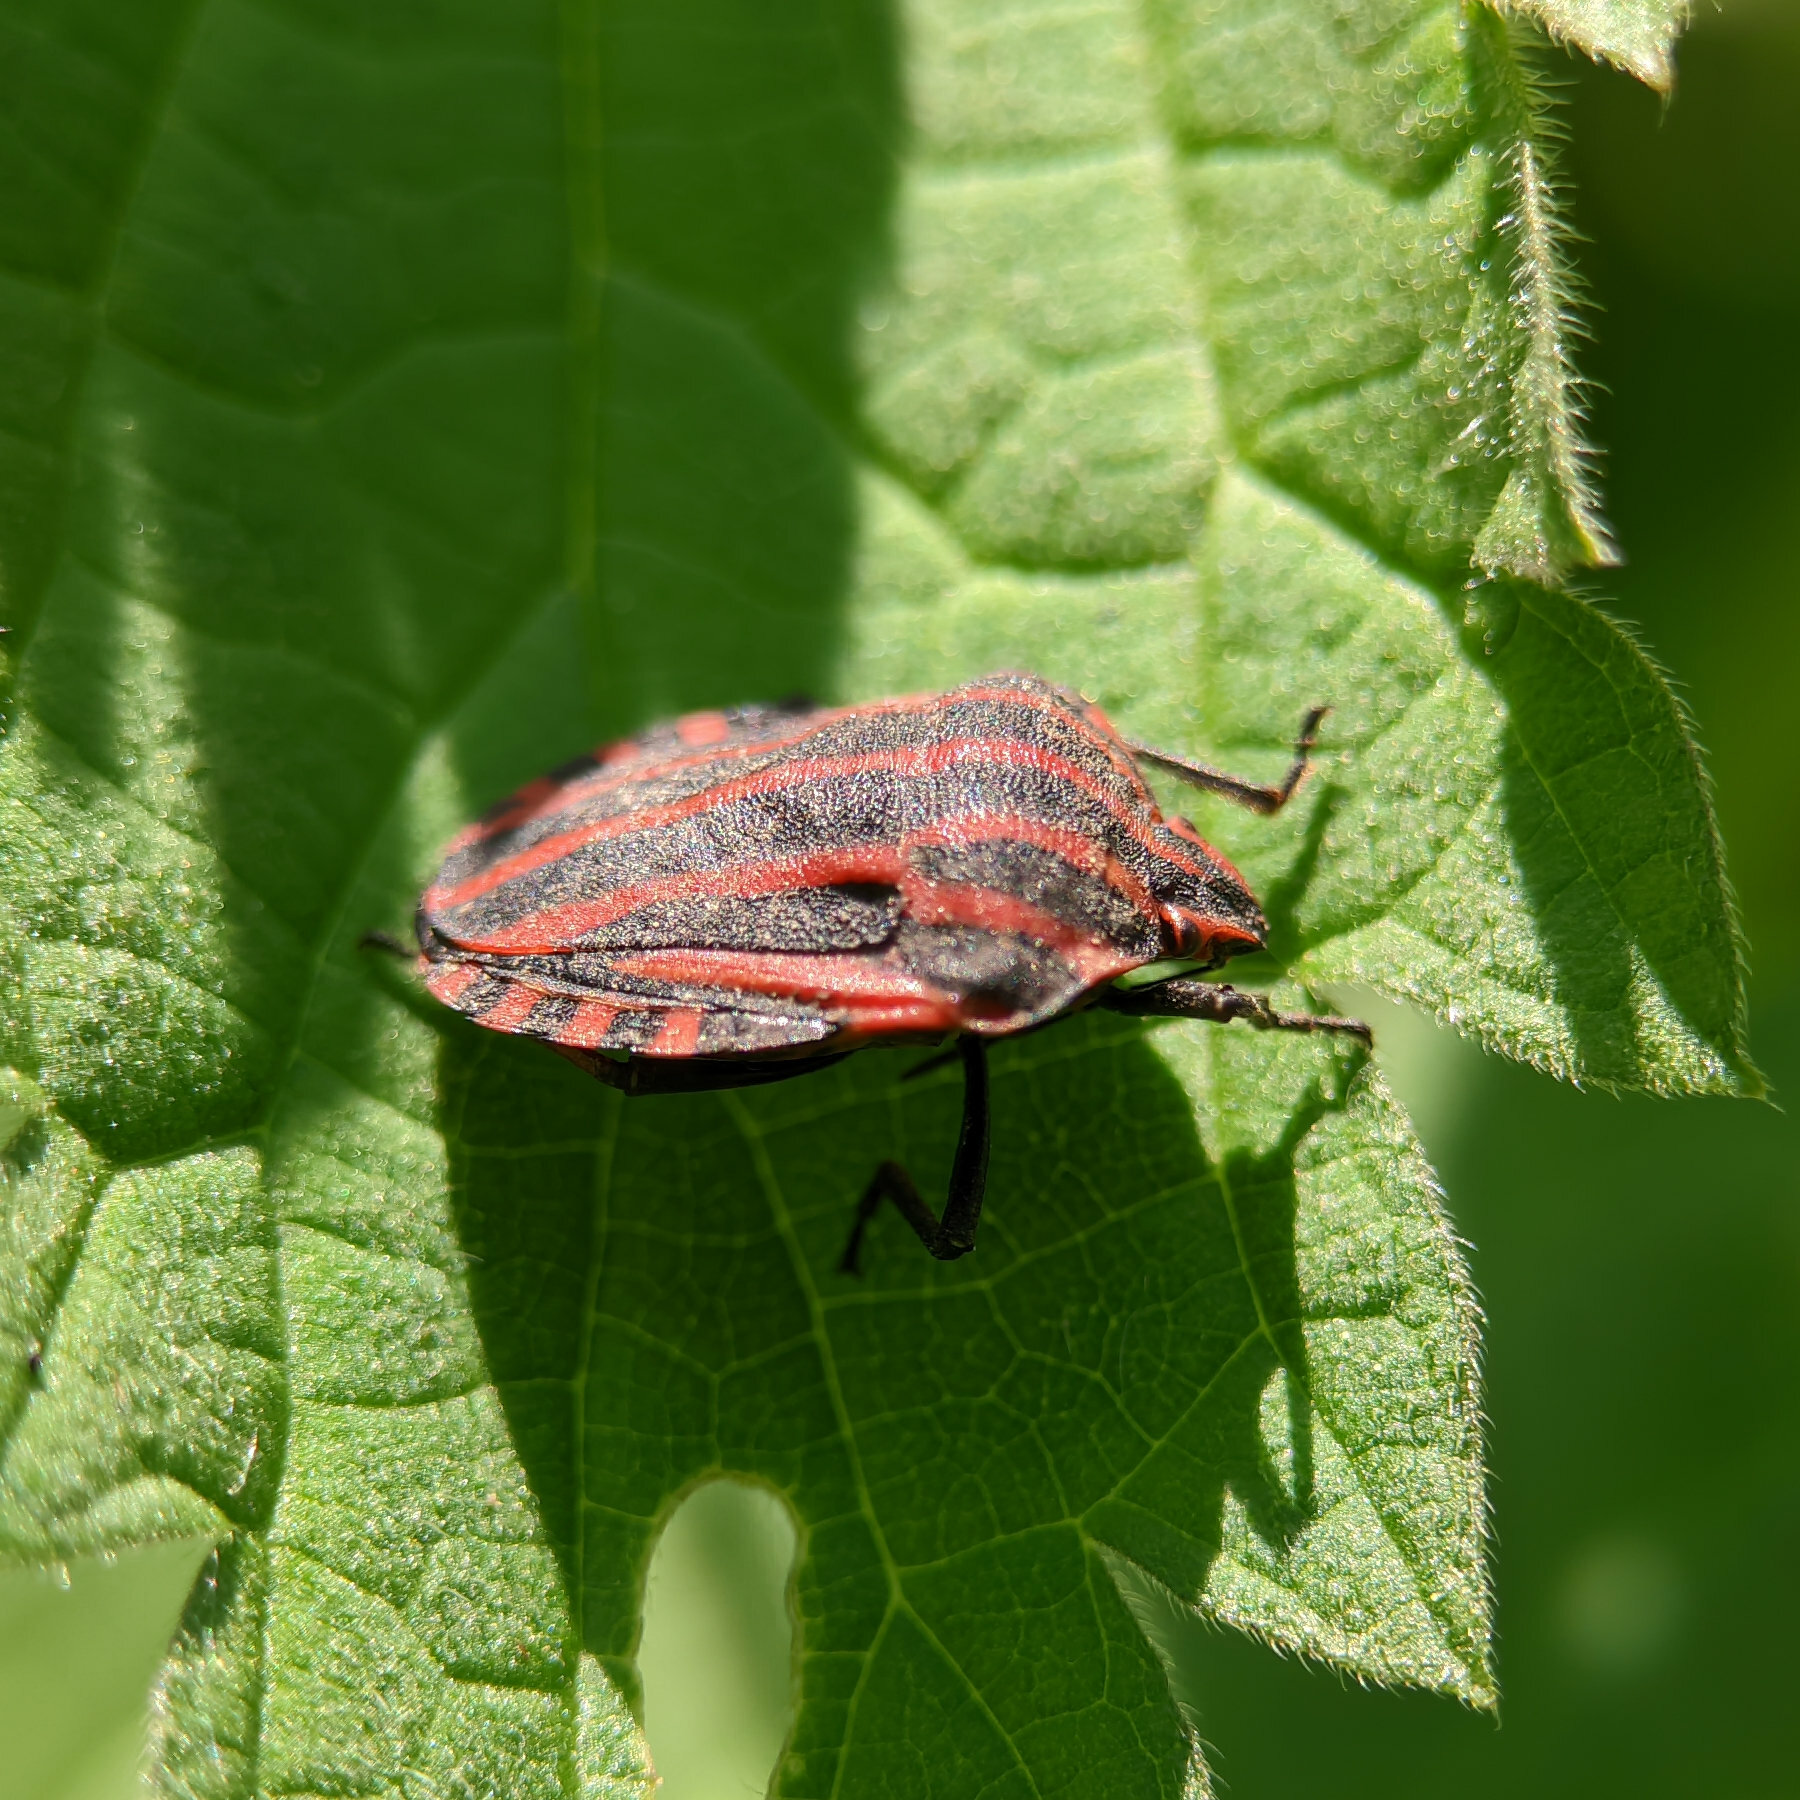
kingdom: Animalia
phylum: Arthropoda
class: Insecta
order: Hemiptera
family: Pentatomidae
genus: Graphosoma
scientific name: Graphosoma italicum
